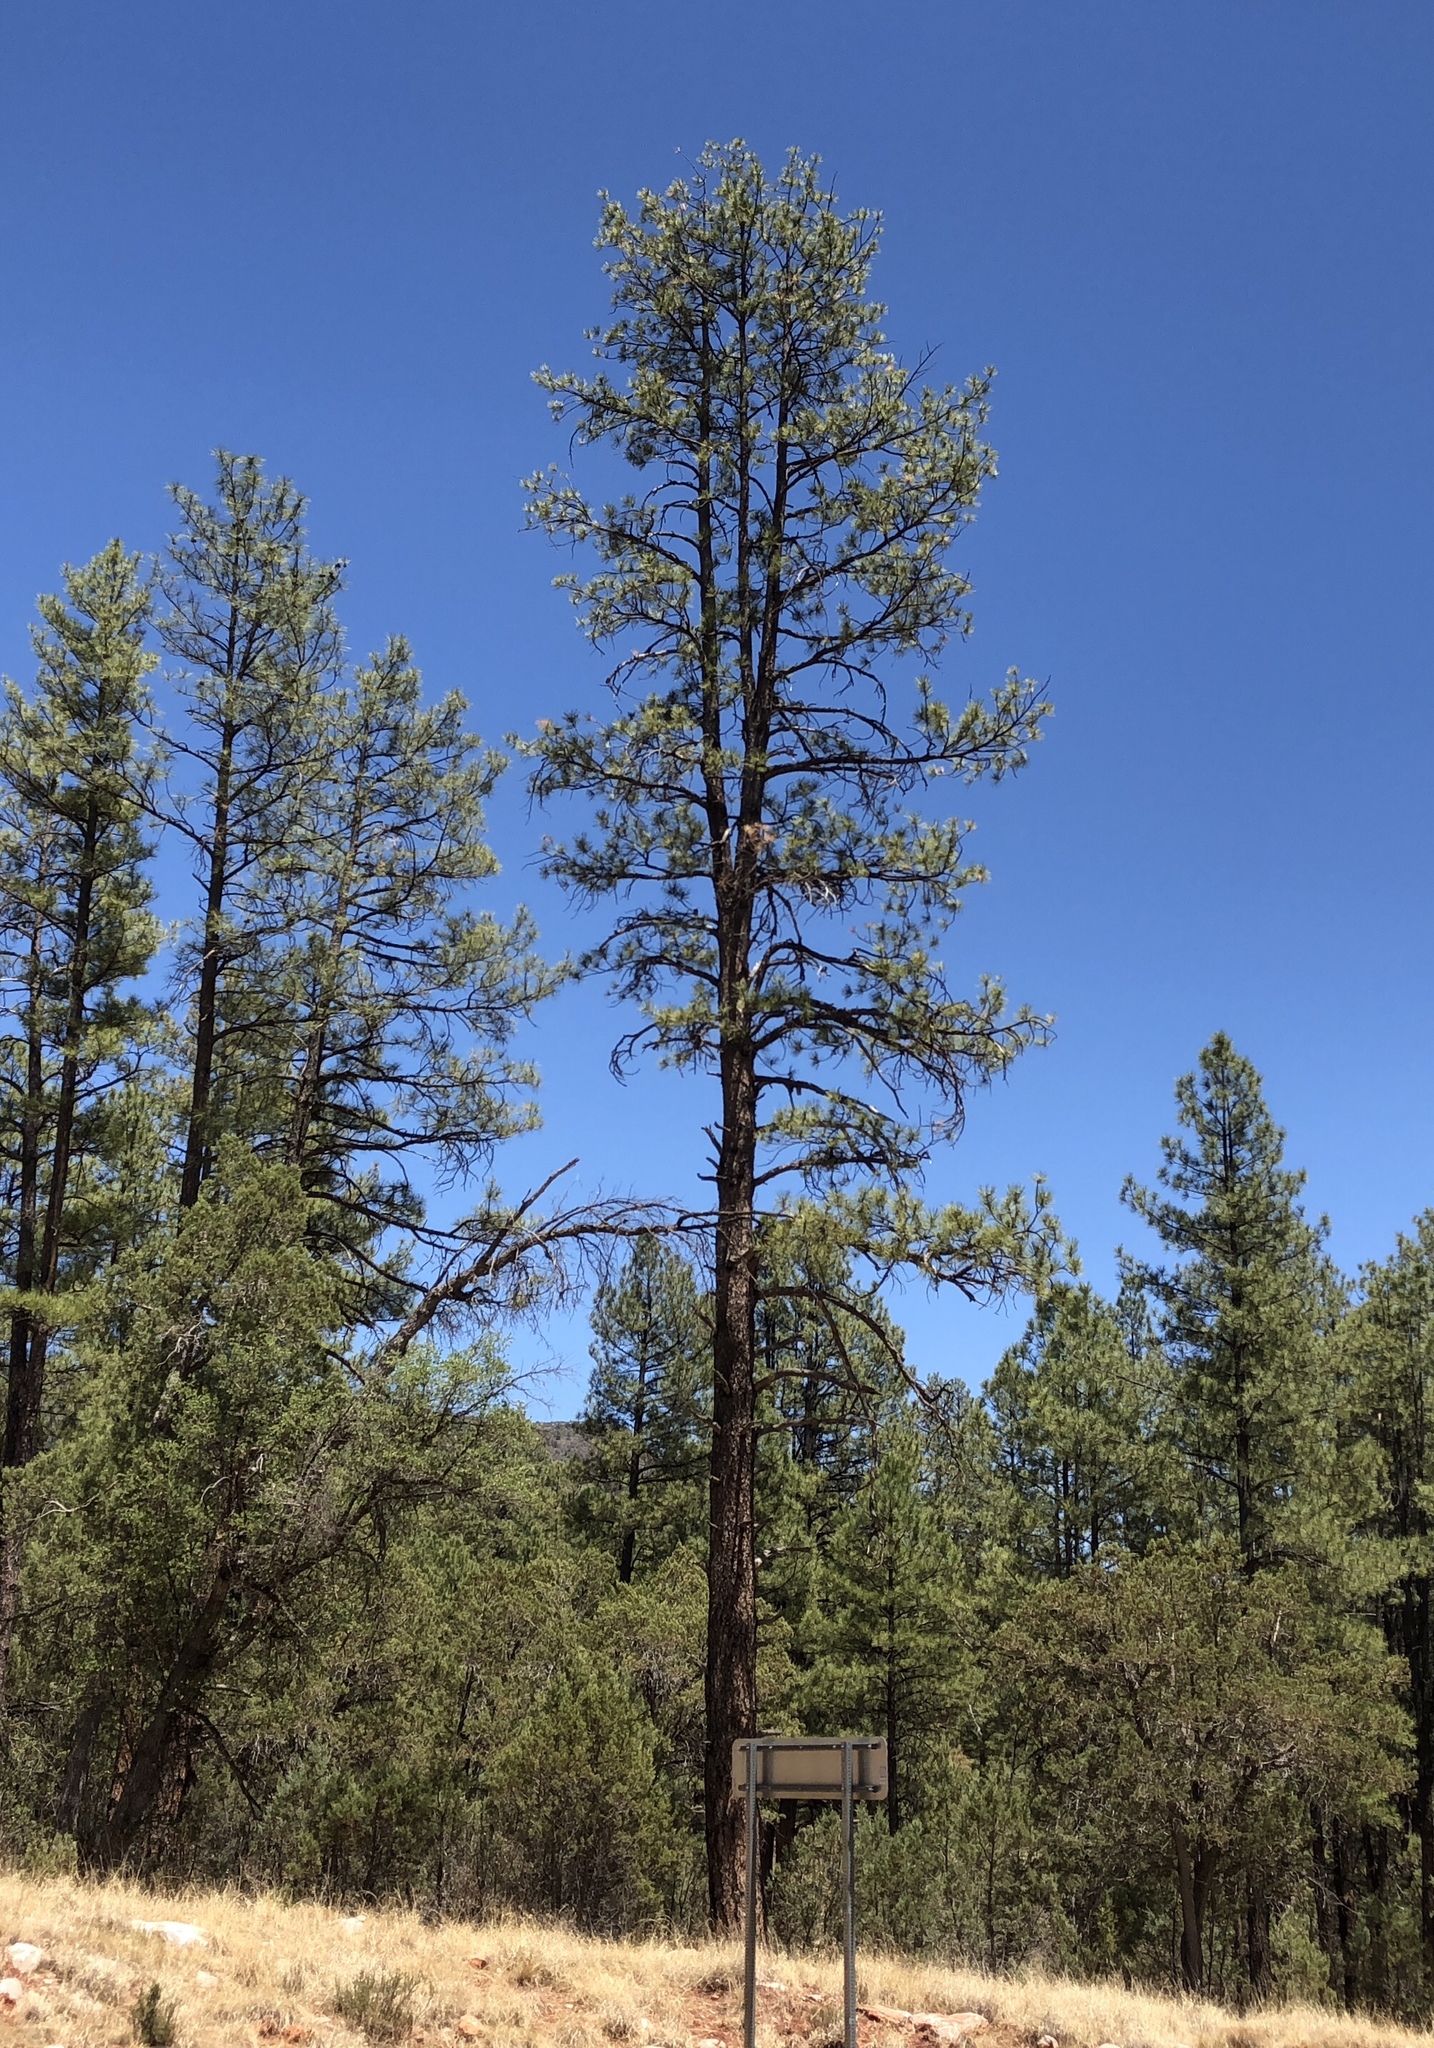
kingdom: Plantae
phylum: Tracheophyta
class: Pinopsida
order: Pinales
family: Pinaceae
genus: Pinus
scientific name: Pinus ponderosa
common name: Western yellow-pine
